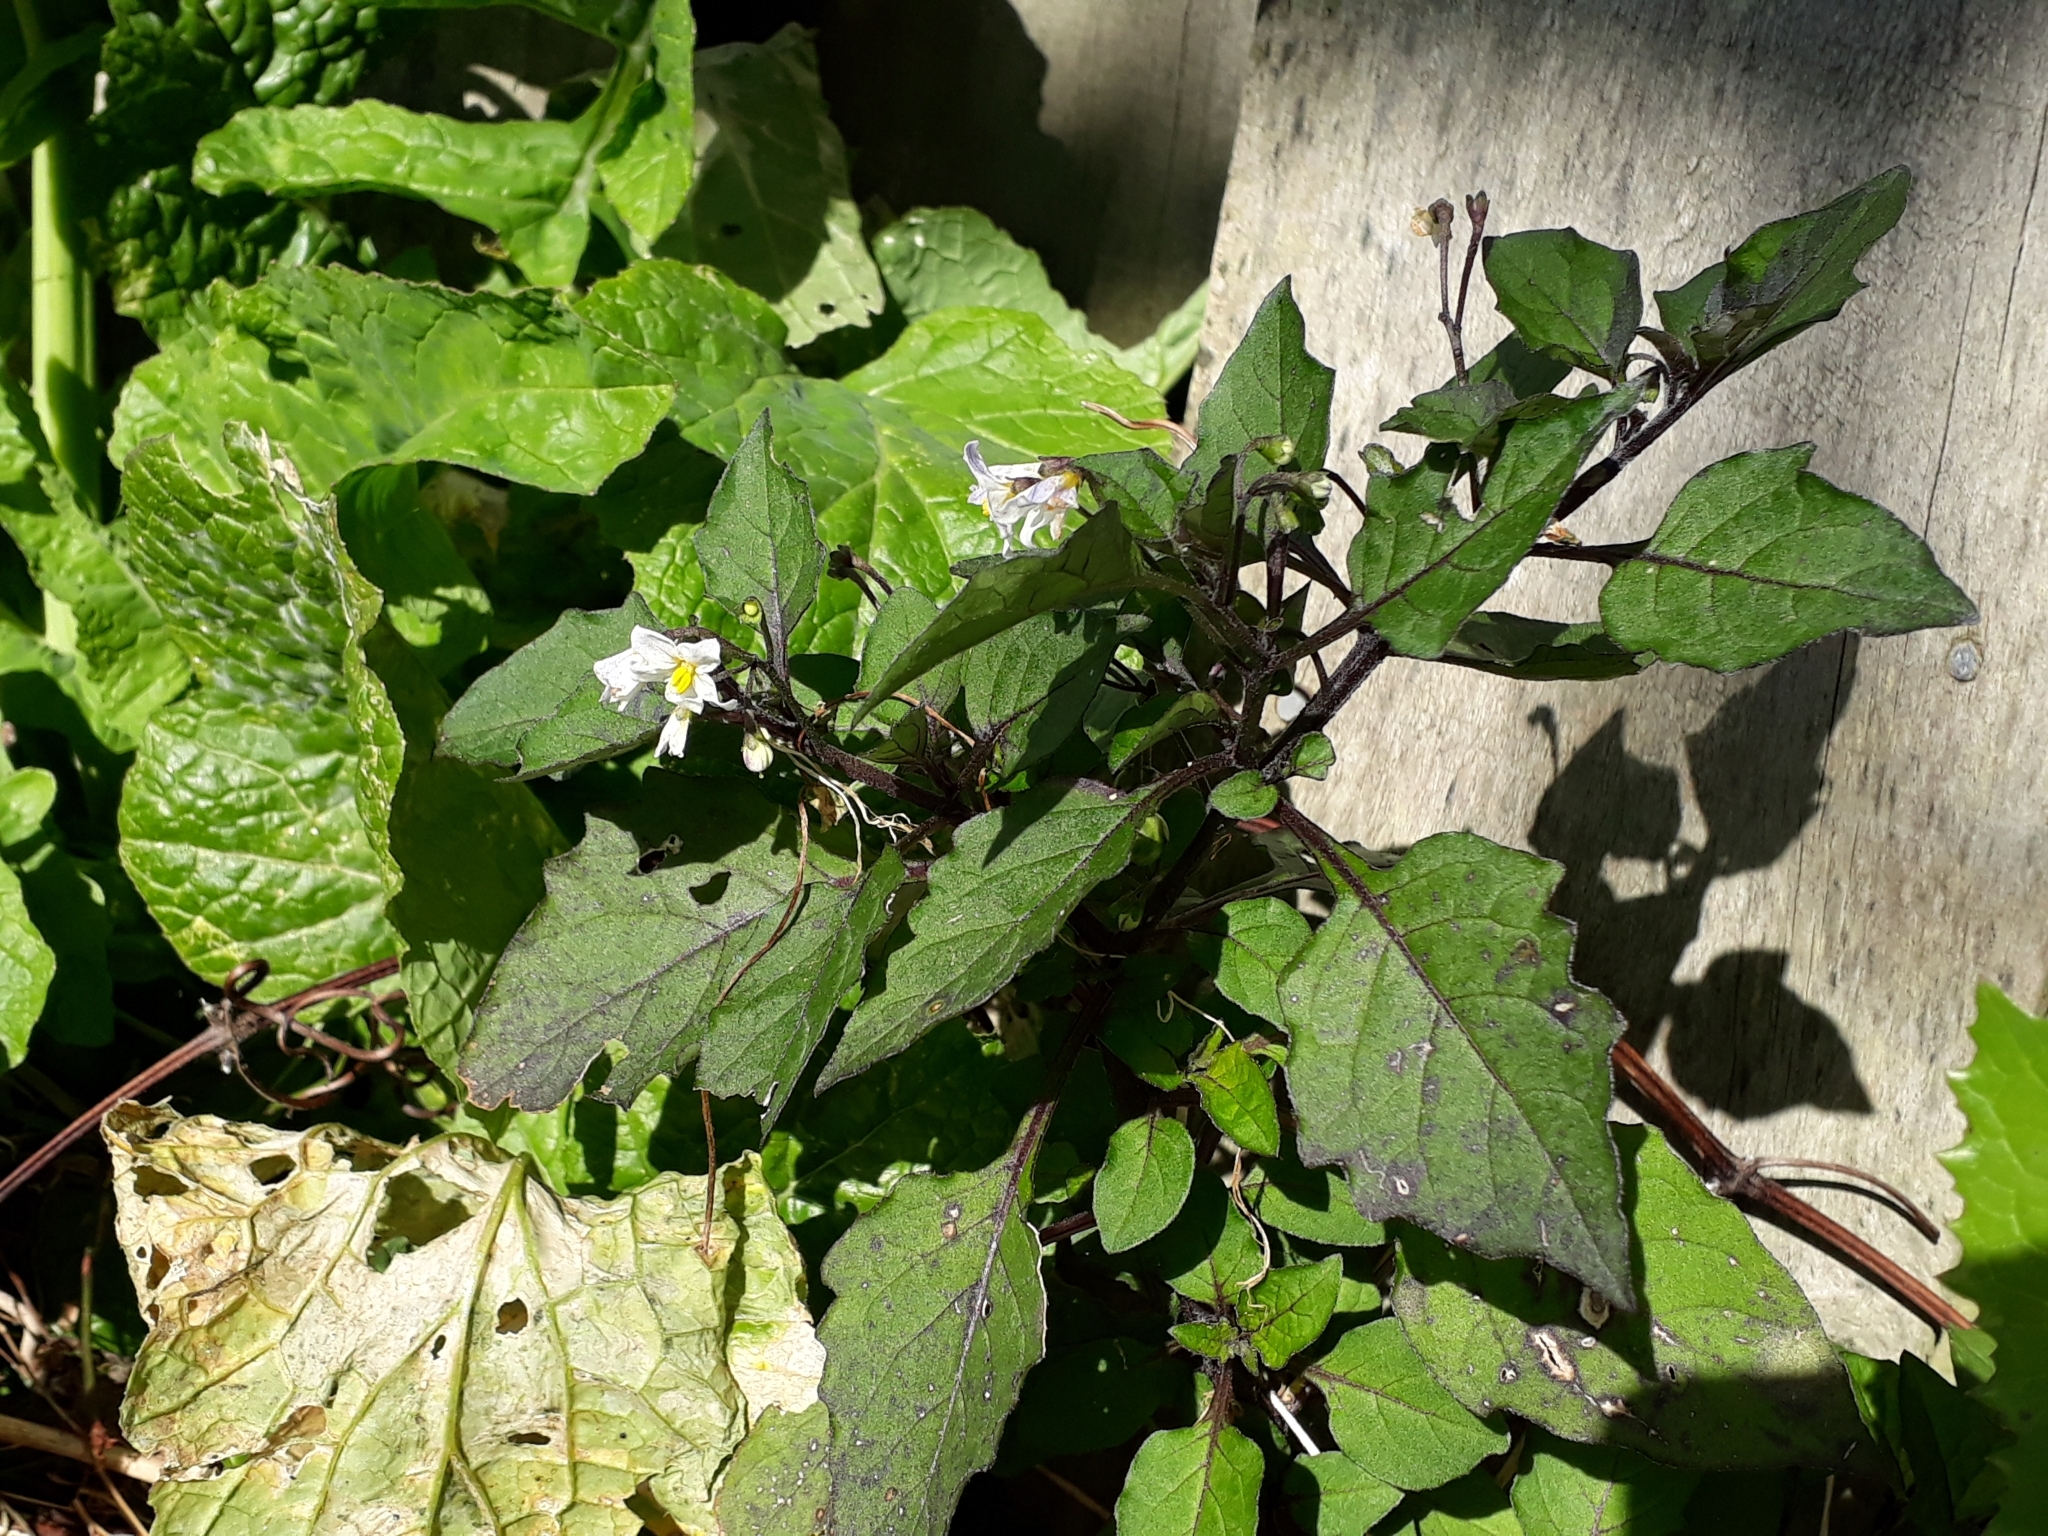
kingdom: Plantae
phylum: Tracheophyta
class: Magnoliopsida
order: Solanales
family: Solanaceae
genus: Solanum
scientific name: Solanum nigrum
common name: Black nightshade
